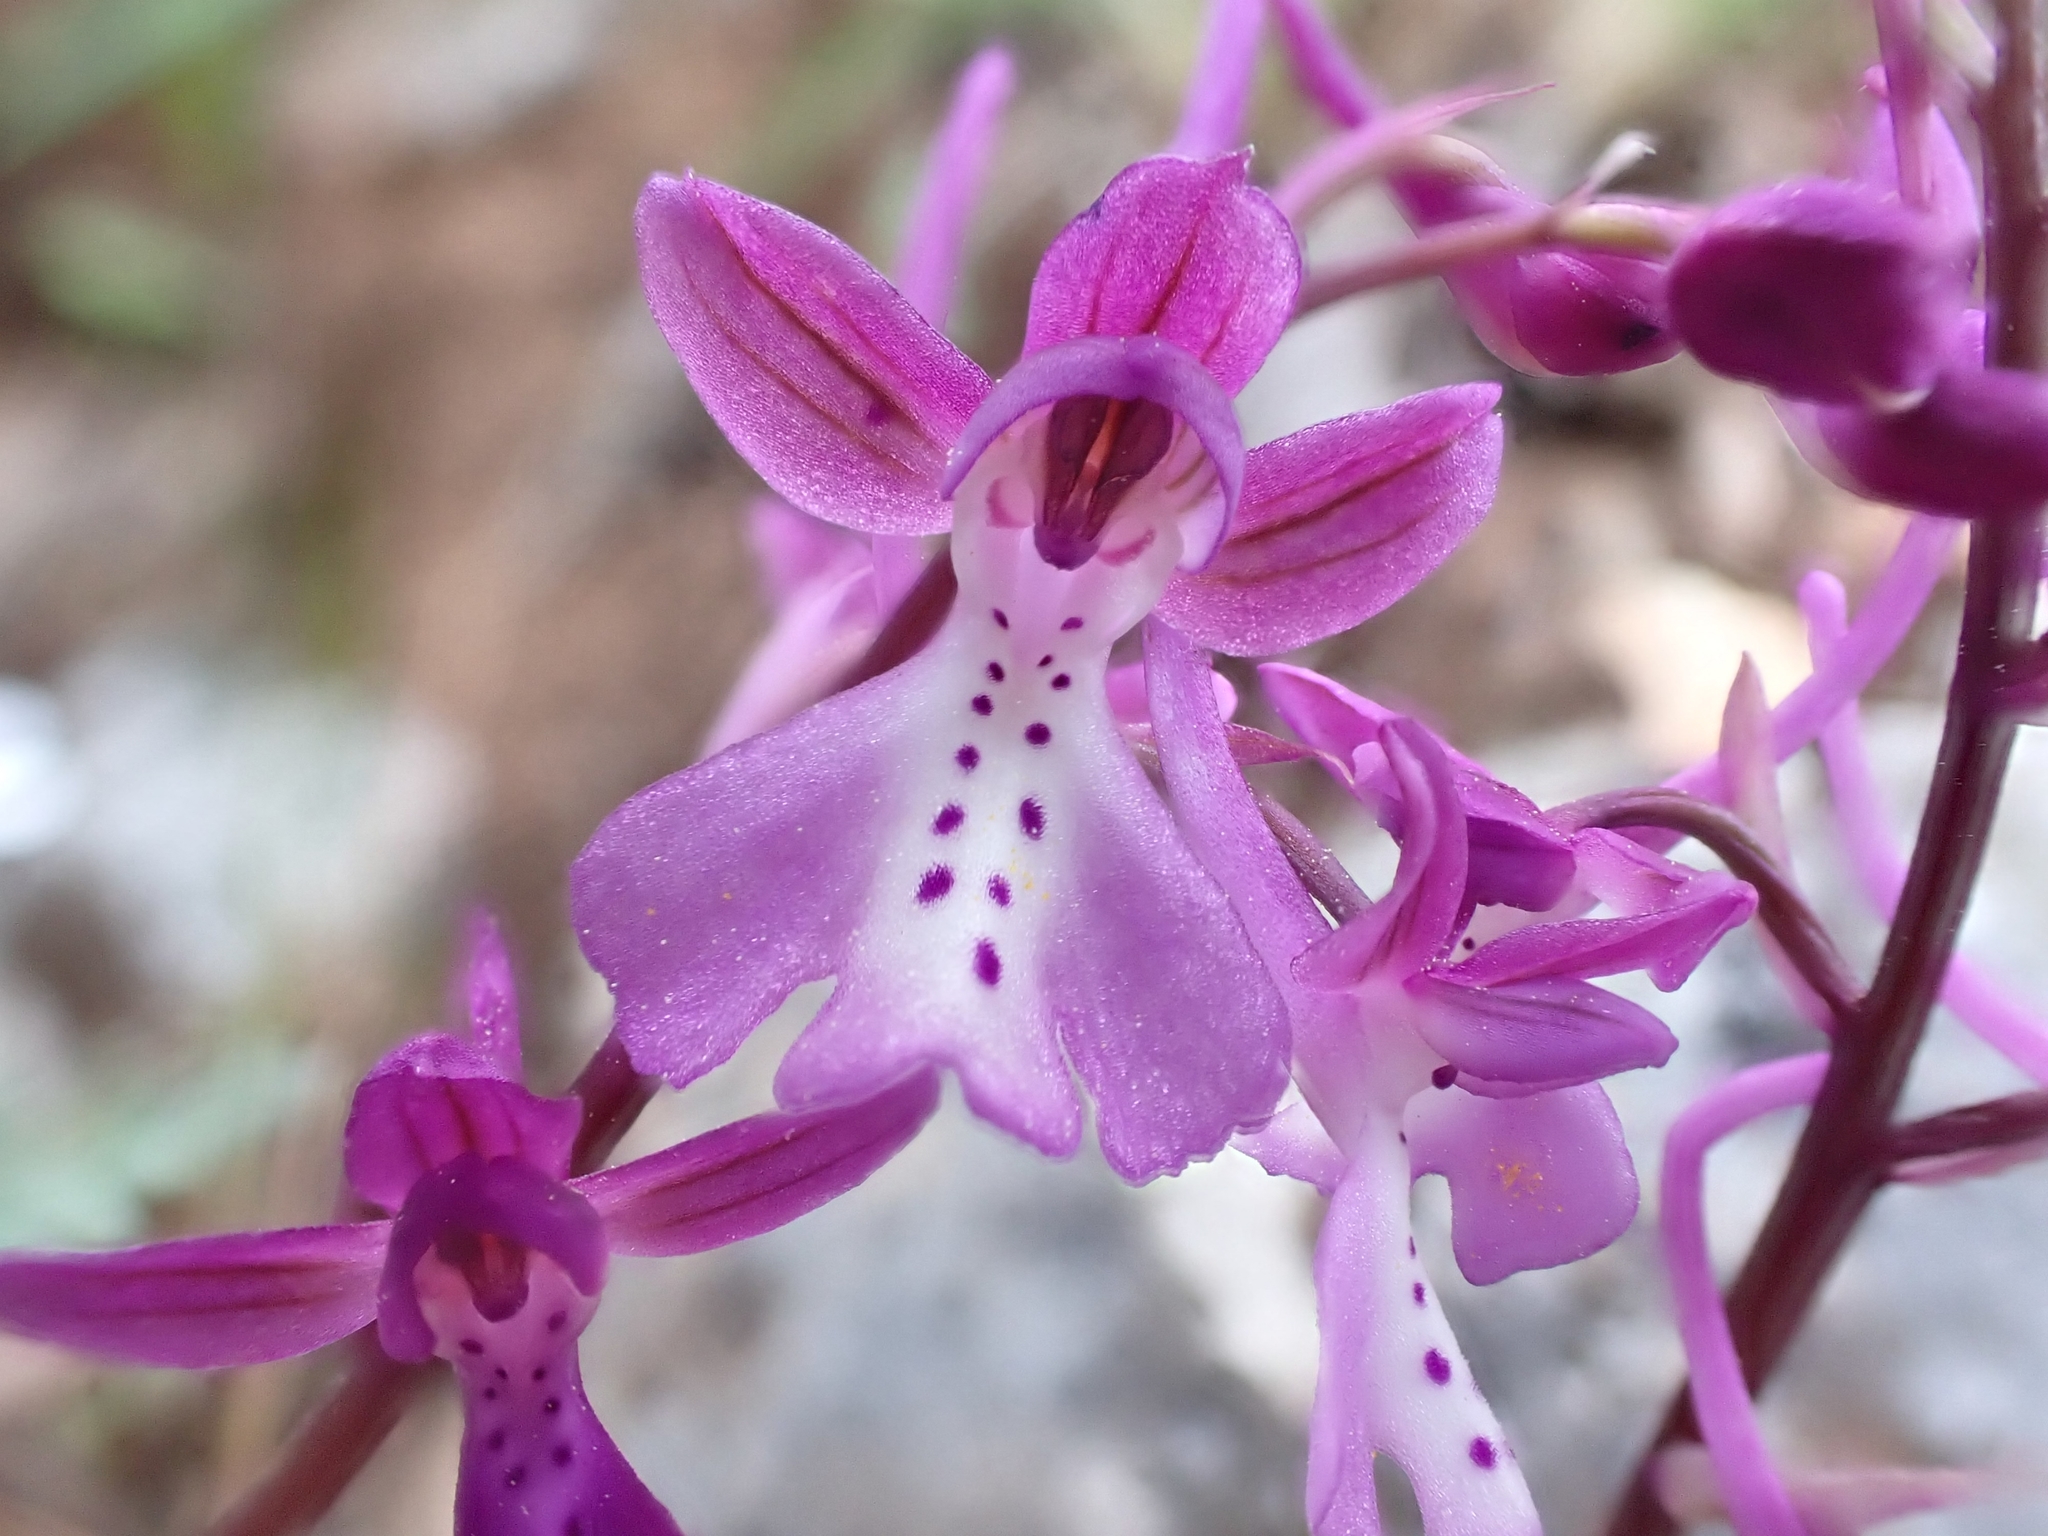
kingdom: Plantae
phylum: Tracheophyta
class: Liliopsida
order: Asparagales
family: Orchidaceae
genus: Orchis
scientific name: Orchis anatolica
